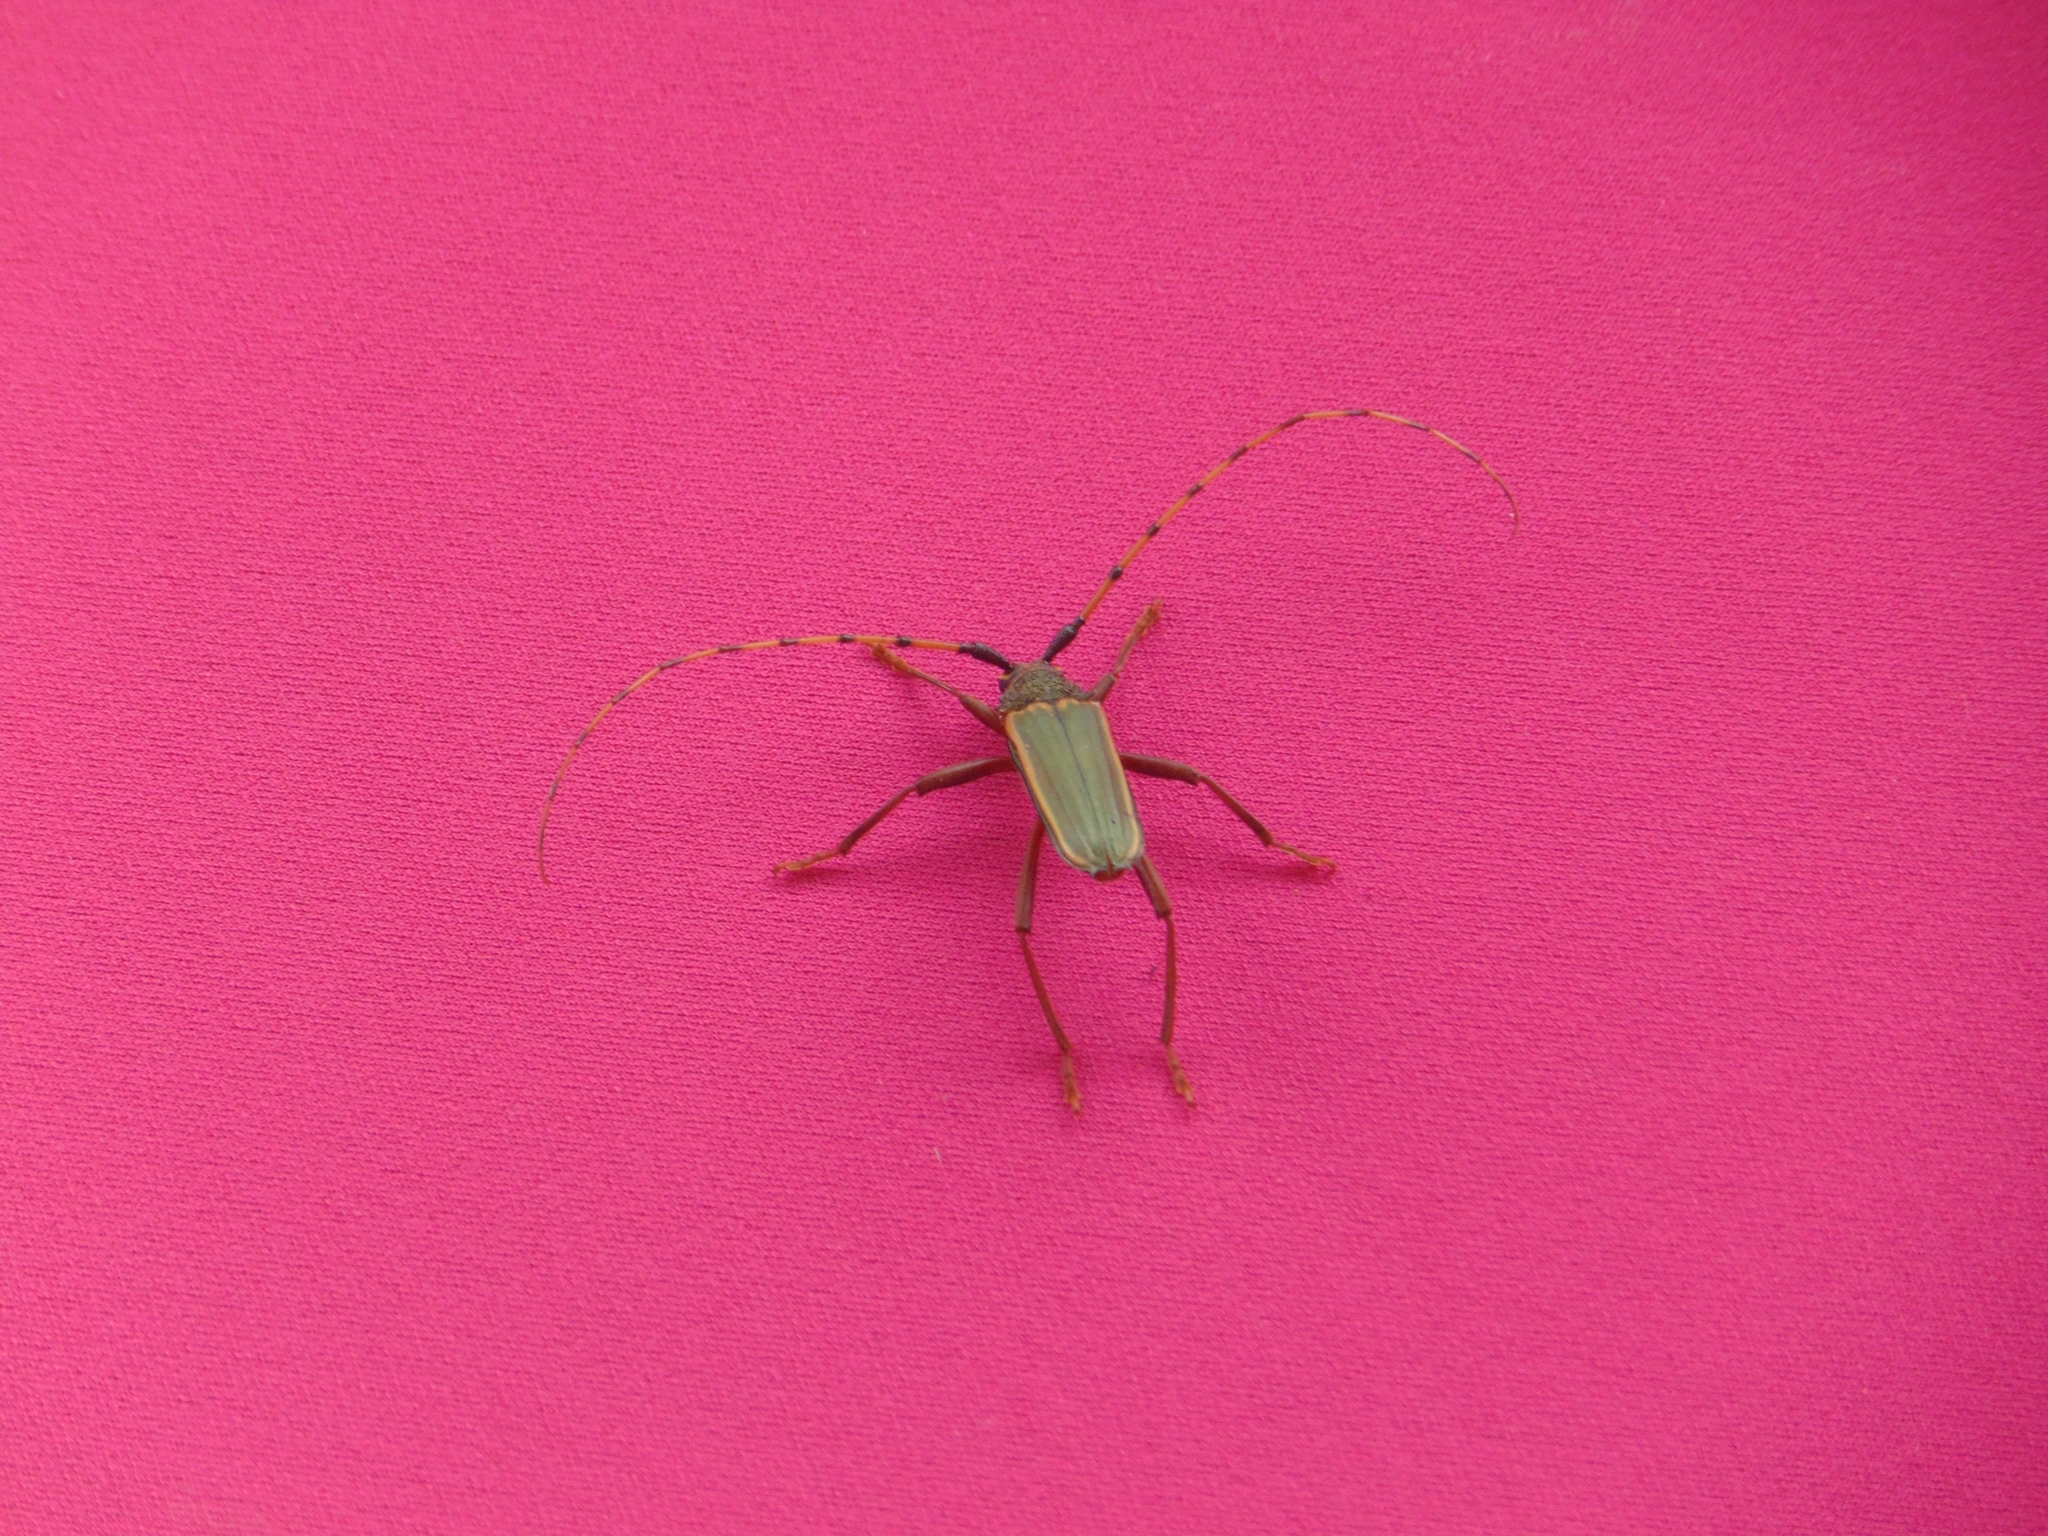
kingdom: Animalia
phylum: Arthropoda
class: Insecta
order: Coleoptera
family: Cerambycidae
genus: Chlorida
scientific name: Chlorida costata
